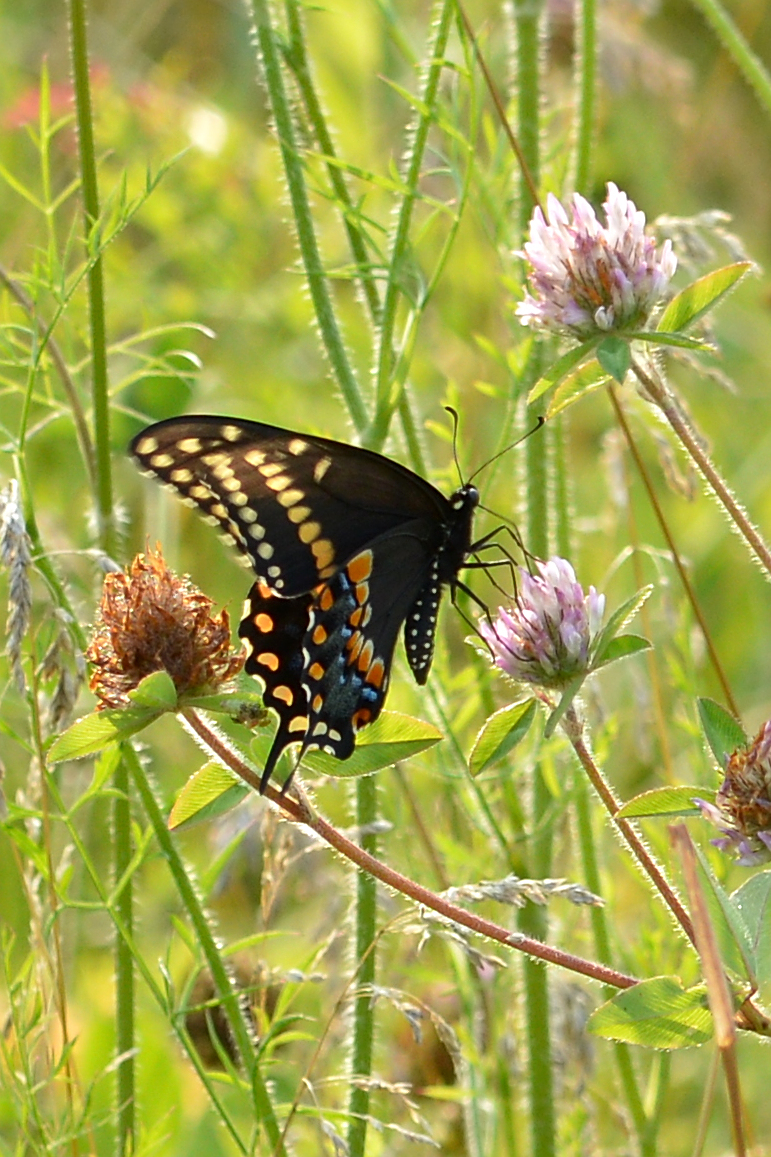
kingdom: Animalia
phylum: Arthropoda
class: Insecta
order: Lepidoptera
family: Papilionidae
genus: Papilio
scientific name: Papilio polyxenes
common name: Black swallowtail
